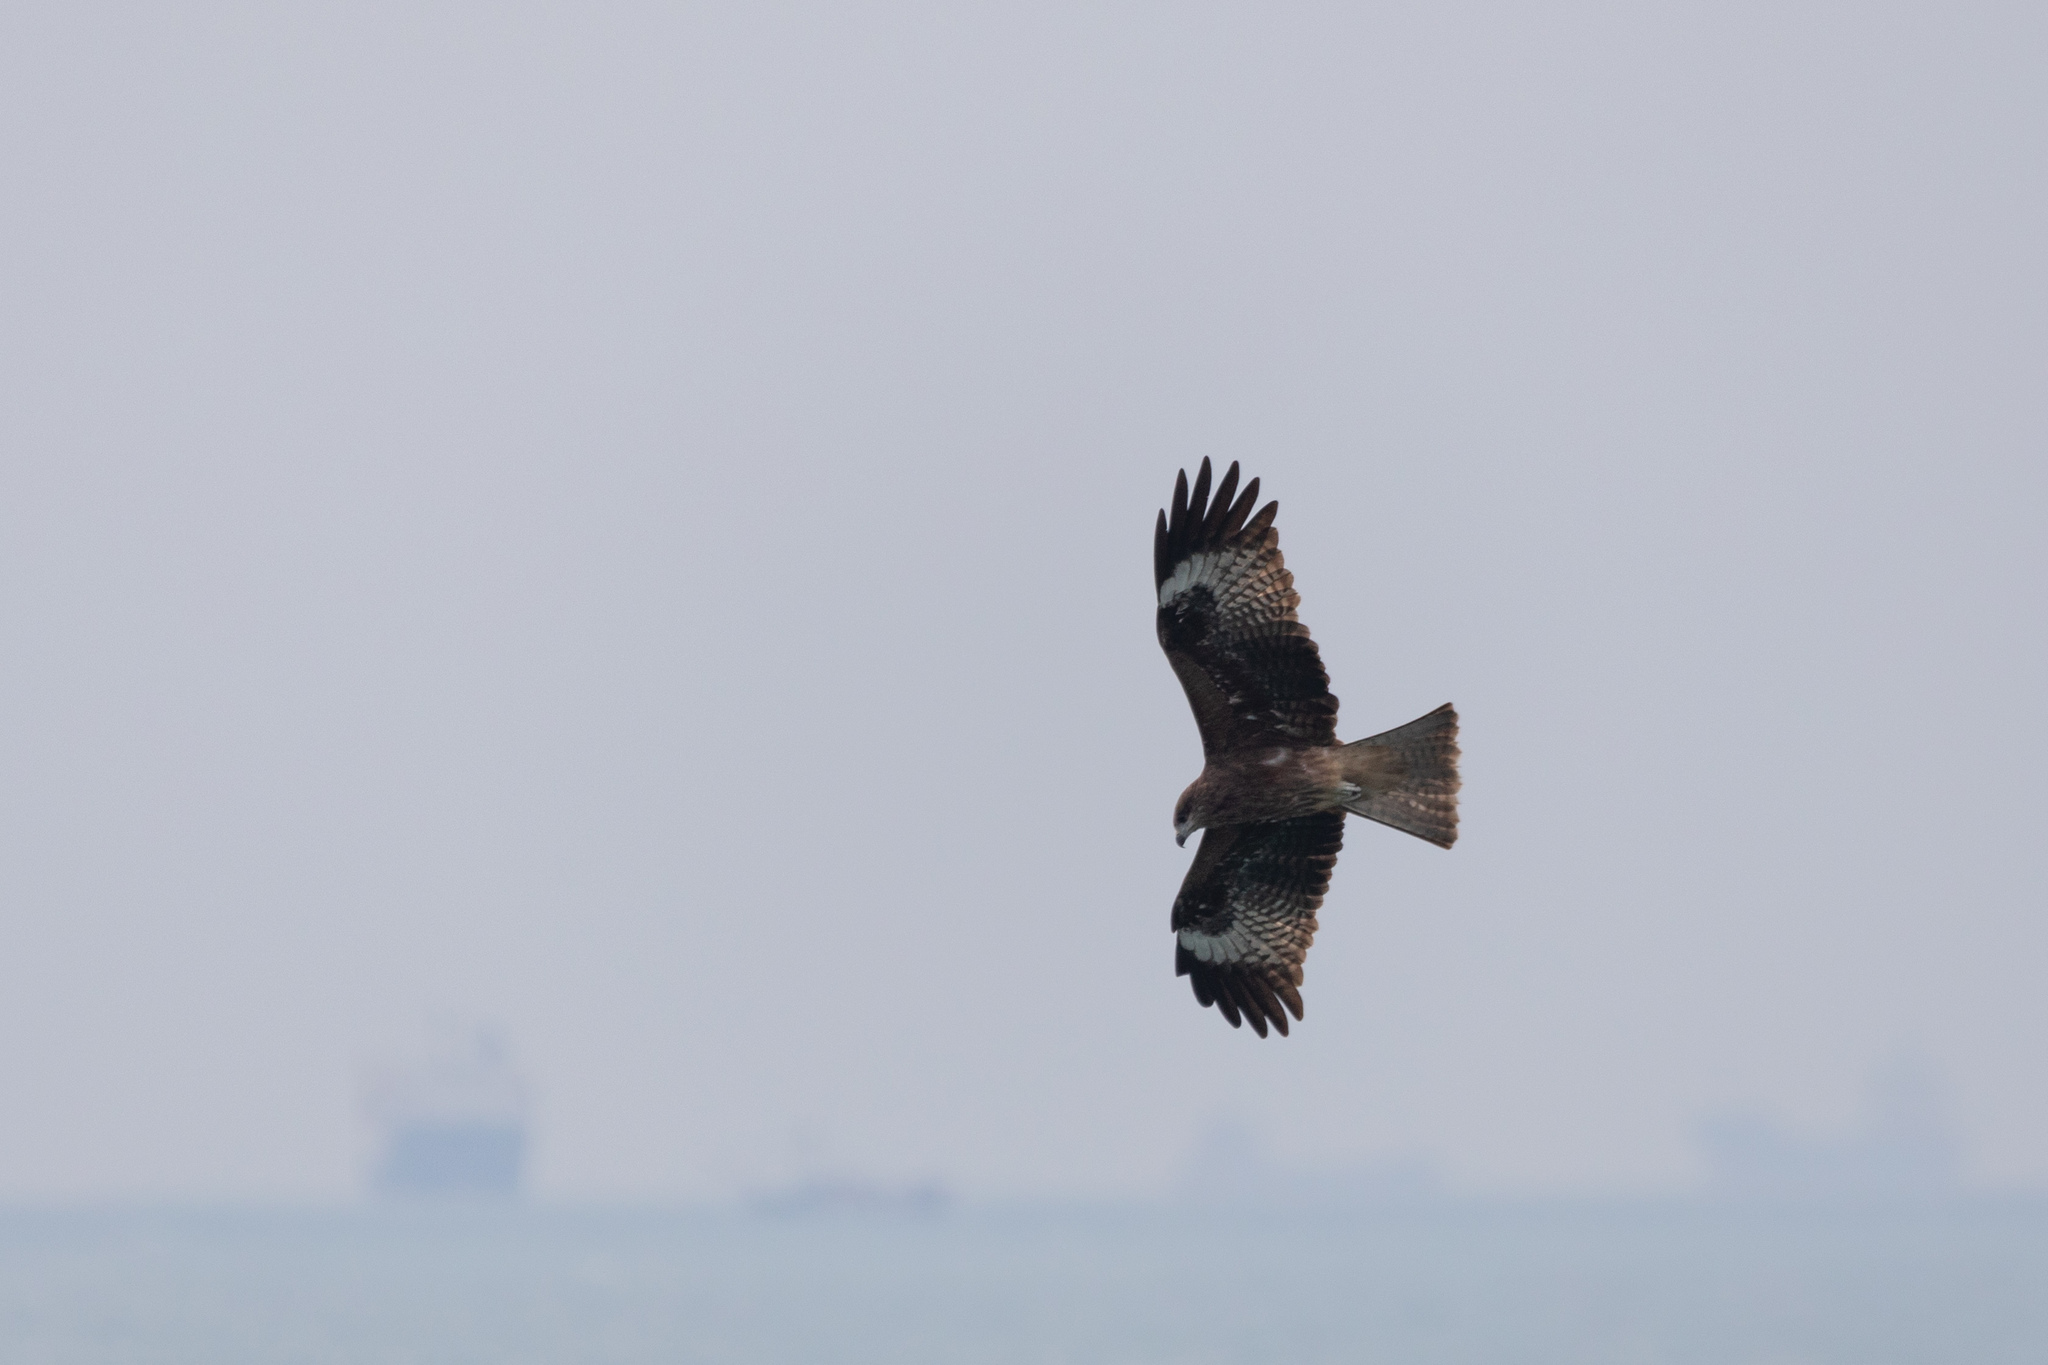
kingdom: Animalia
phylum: Chordata
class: Aves
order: Accipitriformes
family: Accipitridae
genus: Milvus
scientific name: Milvus migrans
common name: Black kite
